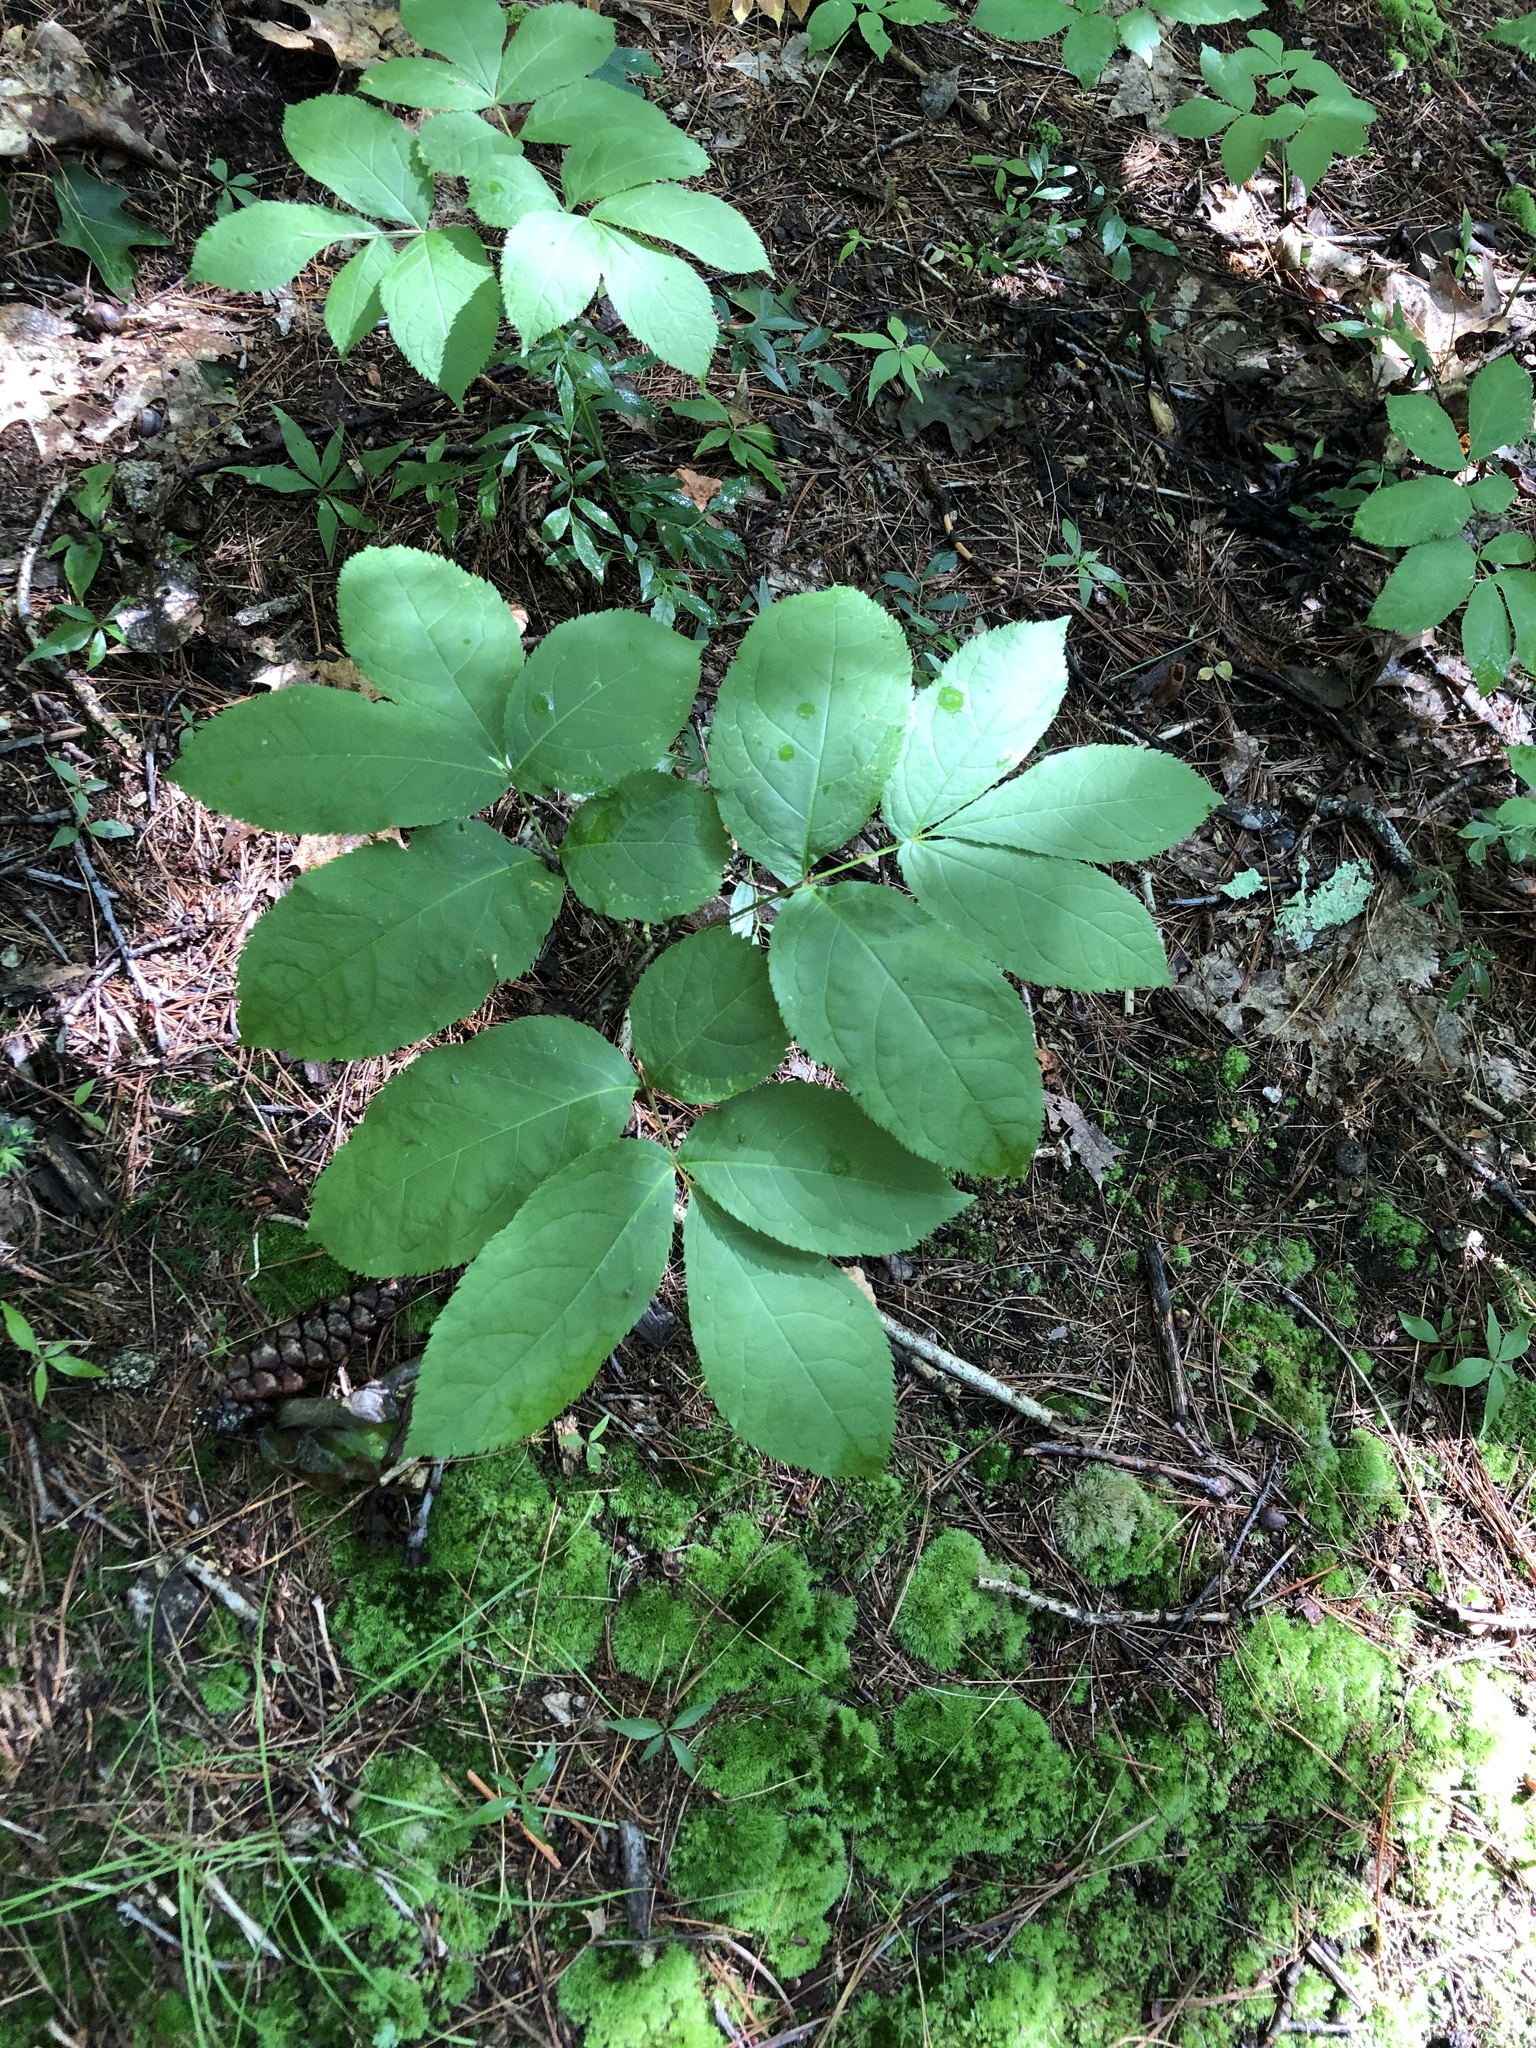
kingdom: Plantae
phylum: Tracheophyta
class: Magnoliopsida
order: Apiales
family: Araliaceae
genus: Aralia
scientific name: Aralia nudicaulis
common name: Wild sarsaparilla
